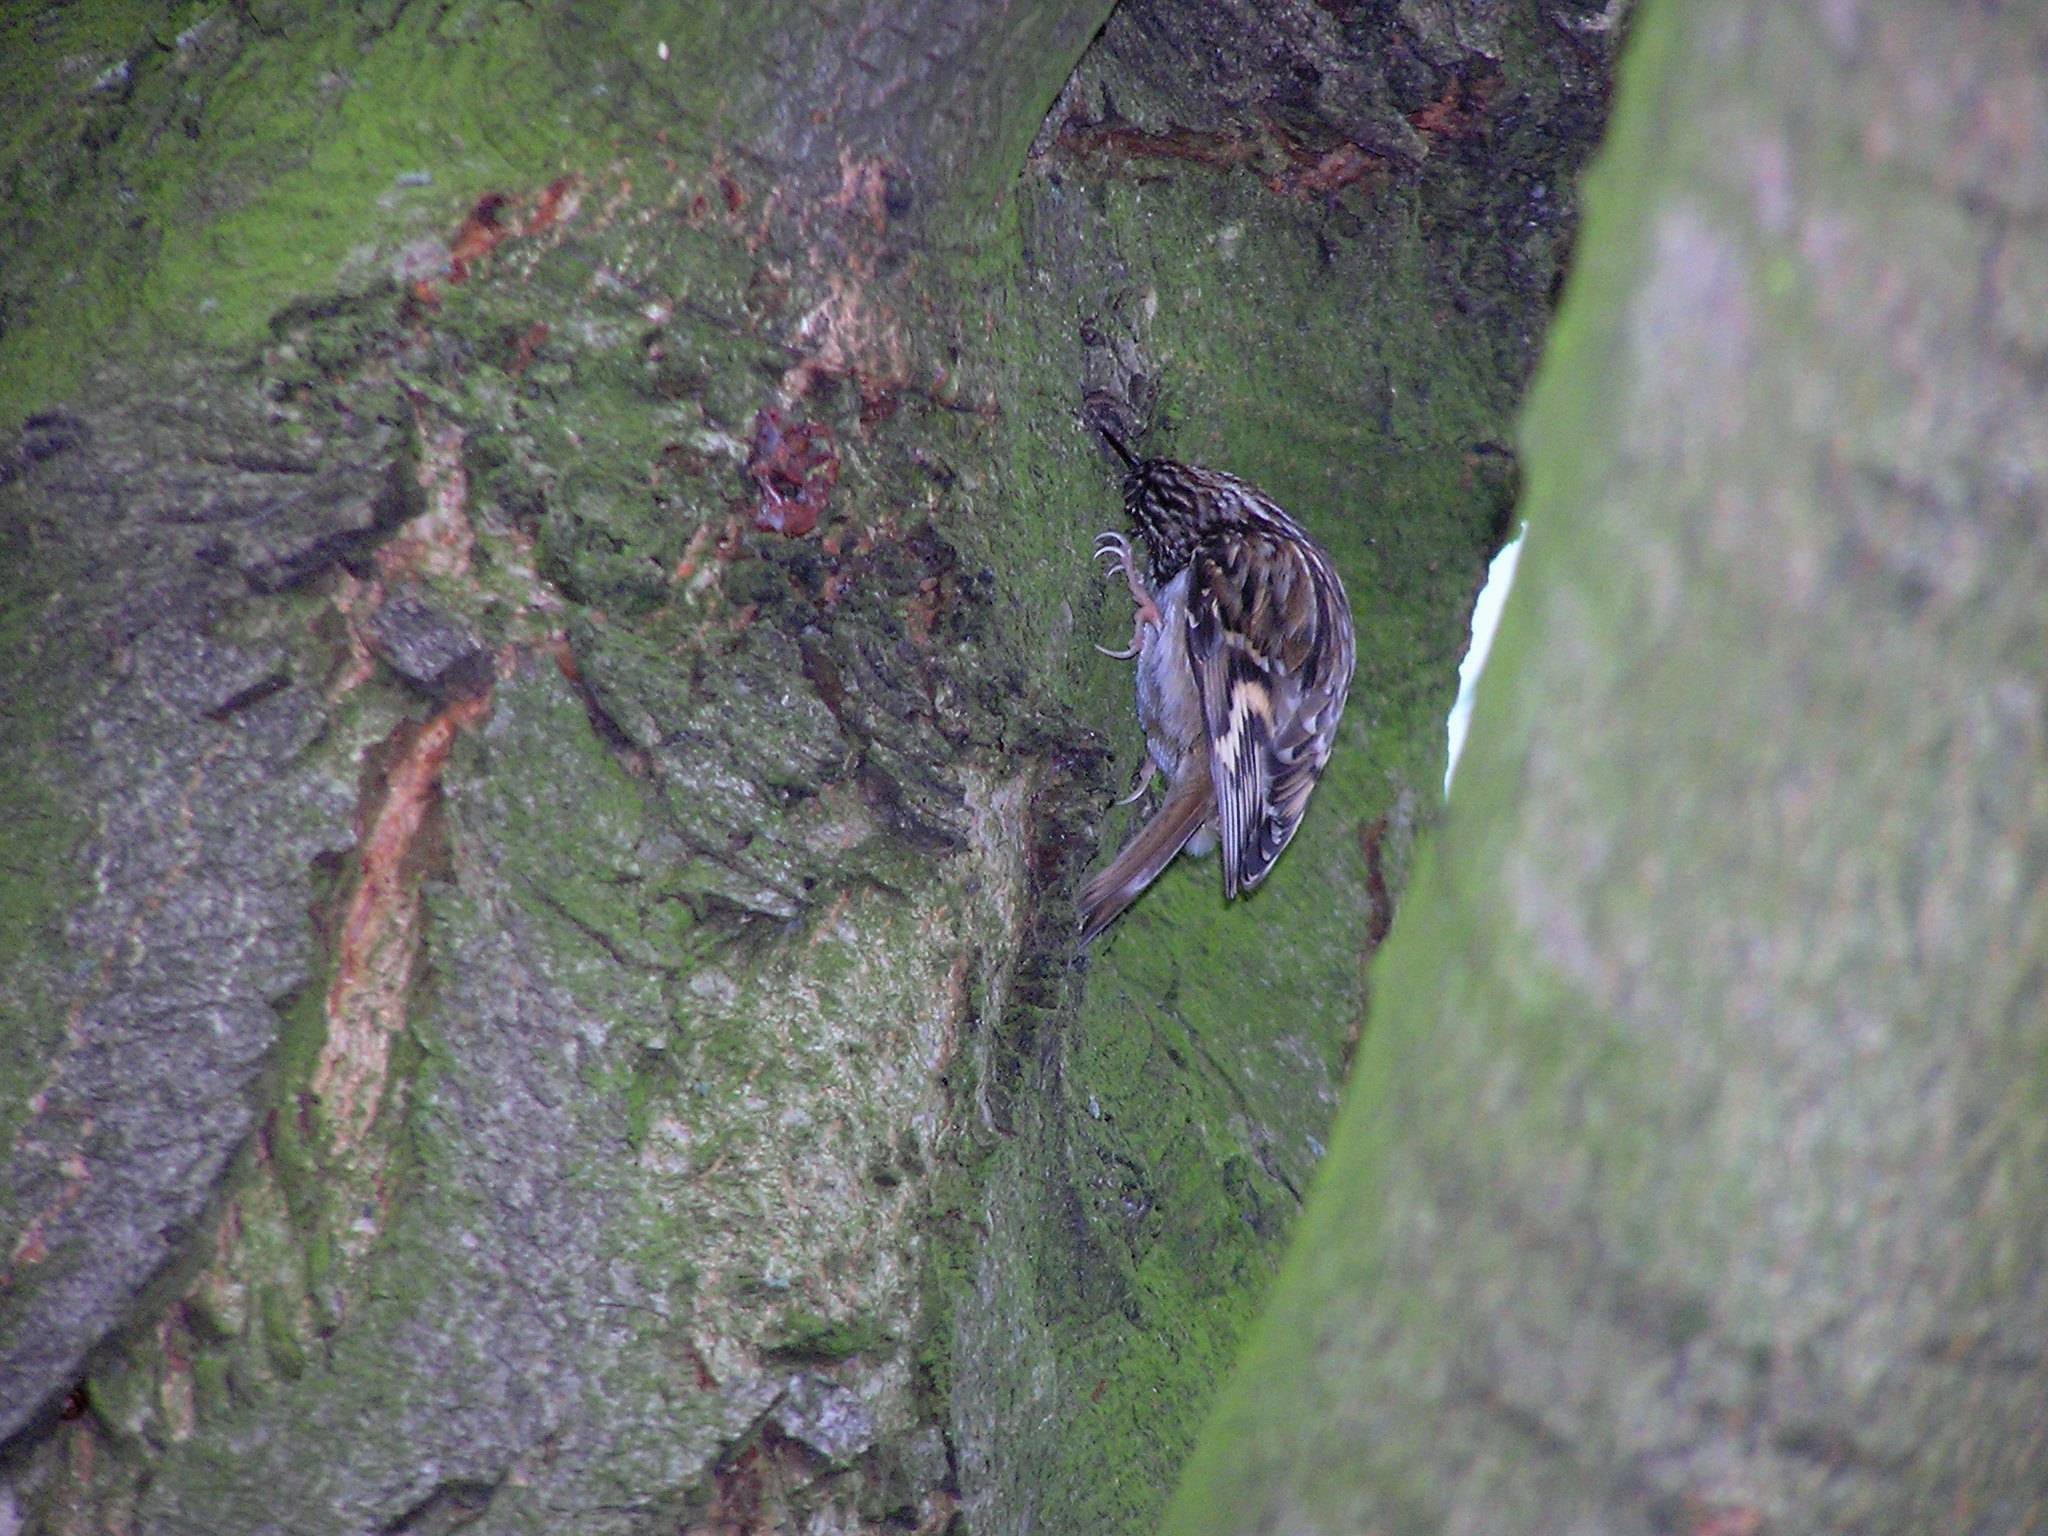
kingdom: Animalia
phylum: Chordata
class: Aves
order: Passeriformes
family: Certhiidae
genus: Certhia
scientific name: Certhia brachydactyla
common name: Short-toed treecreeper
